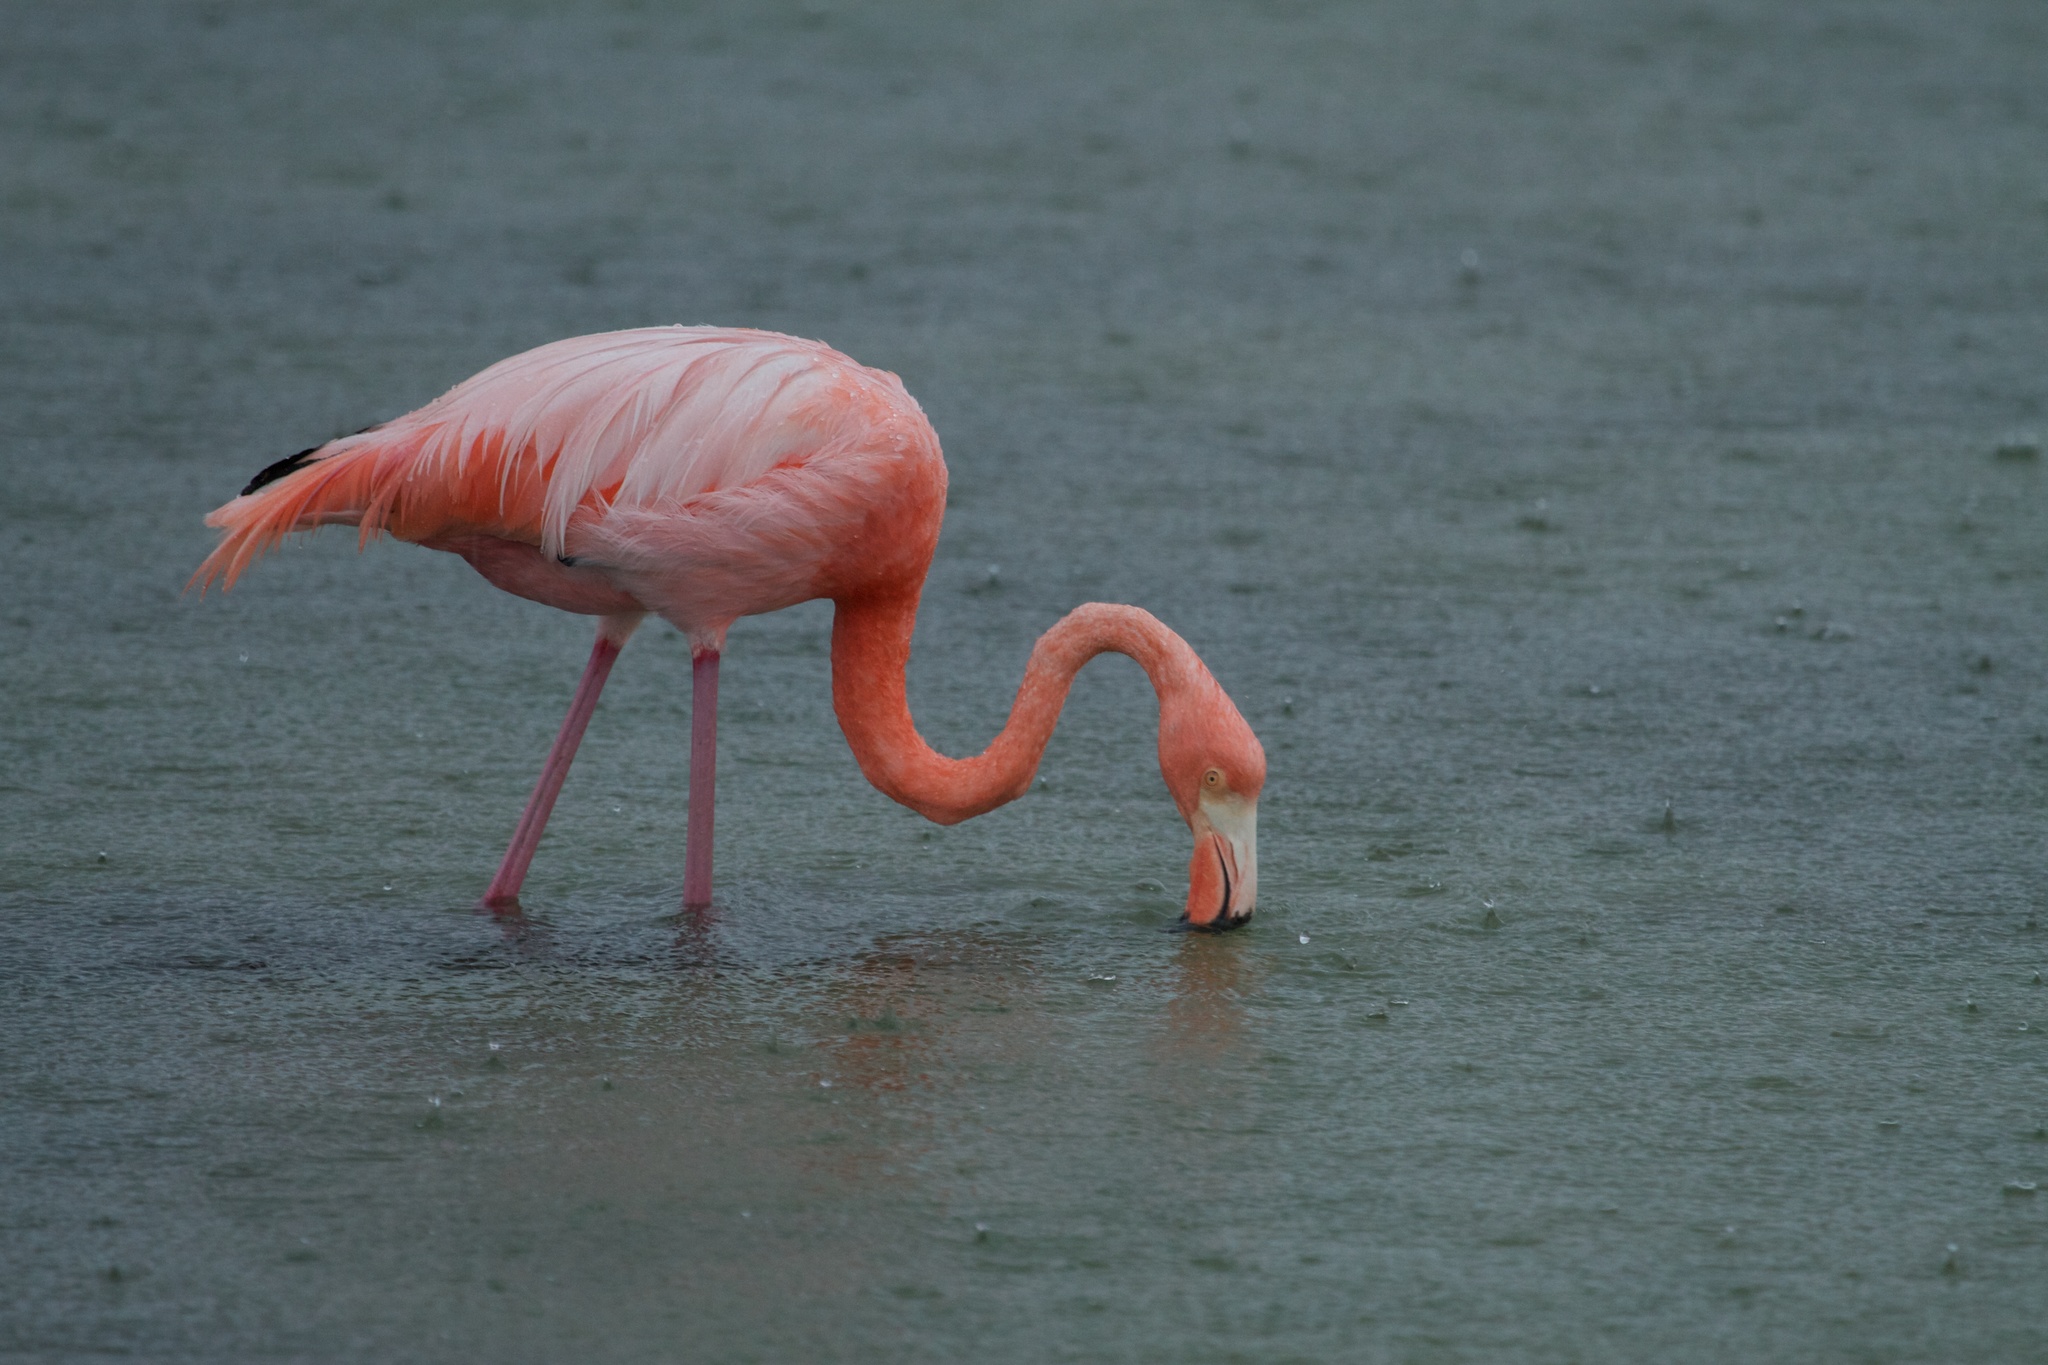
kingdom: Animalia
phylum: Chordata
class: Aves
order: Phoenicopteriformes
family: Phoenicopteridae
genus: Phoenicopterus
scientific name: Phoenicopterus ruber
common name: American flamingo
